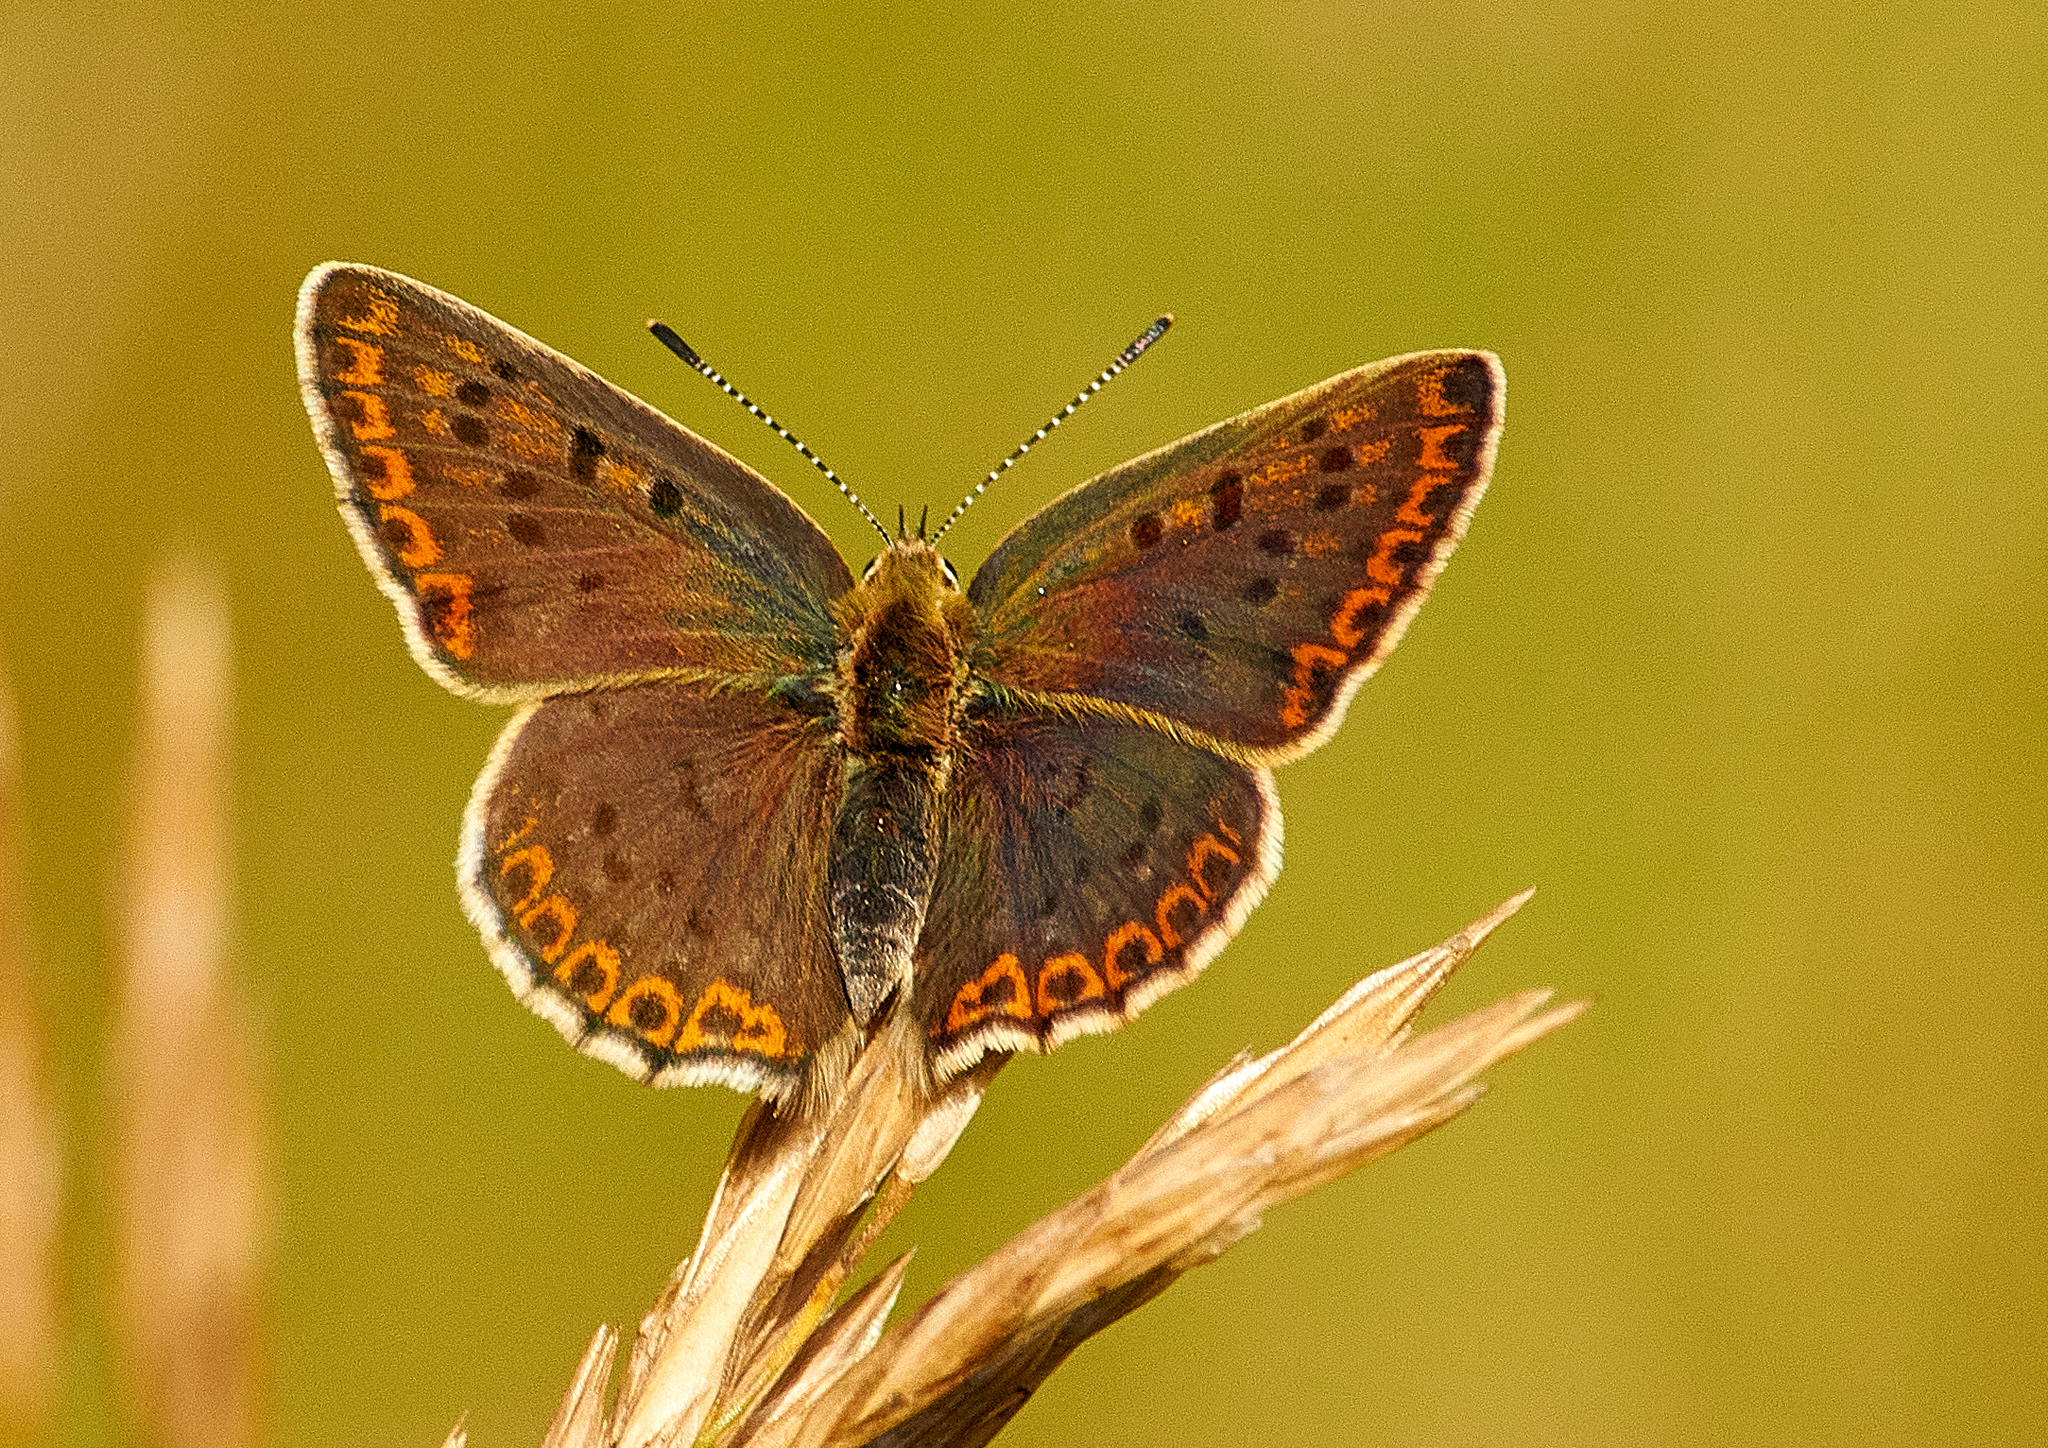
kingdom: Animalia
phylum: Arthropoda
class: Insecta
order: Lepidoptera
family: Lycaenidae
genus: Loweia
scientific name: Loweia tityrus
